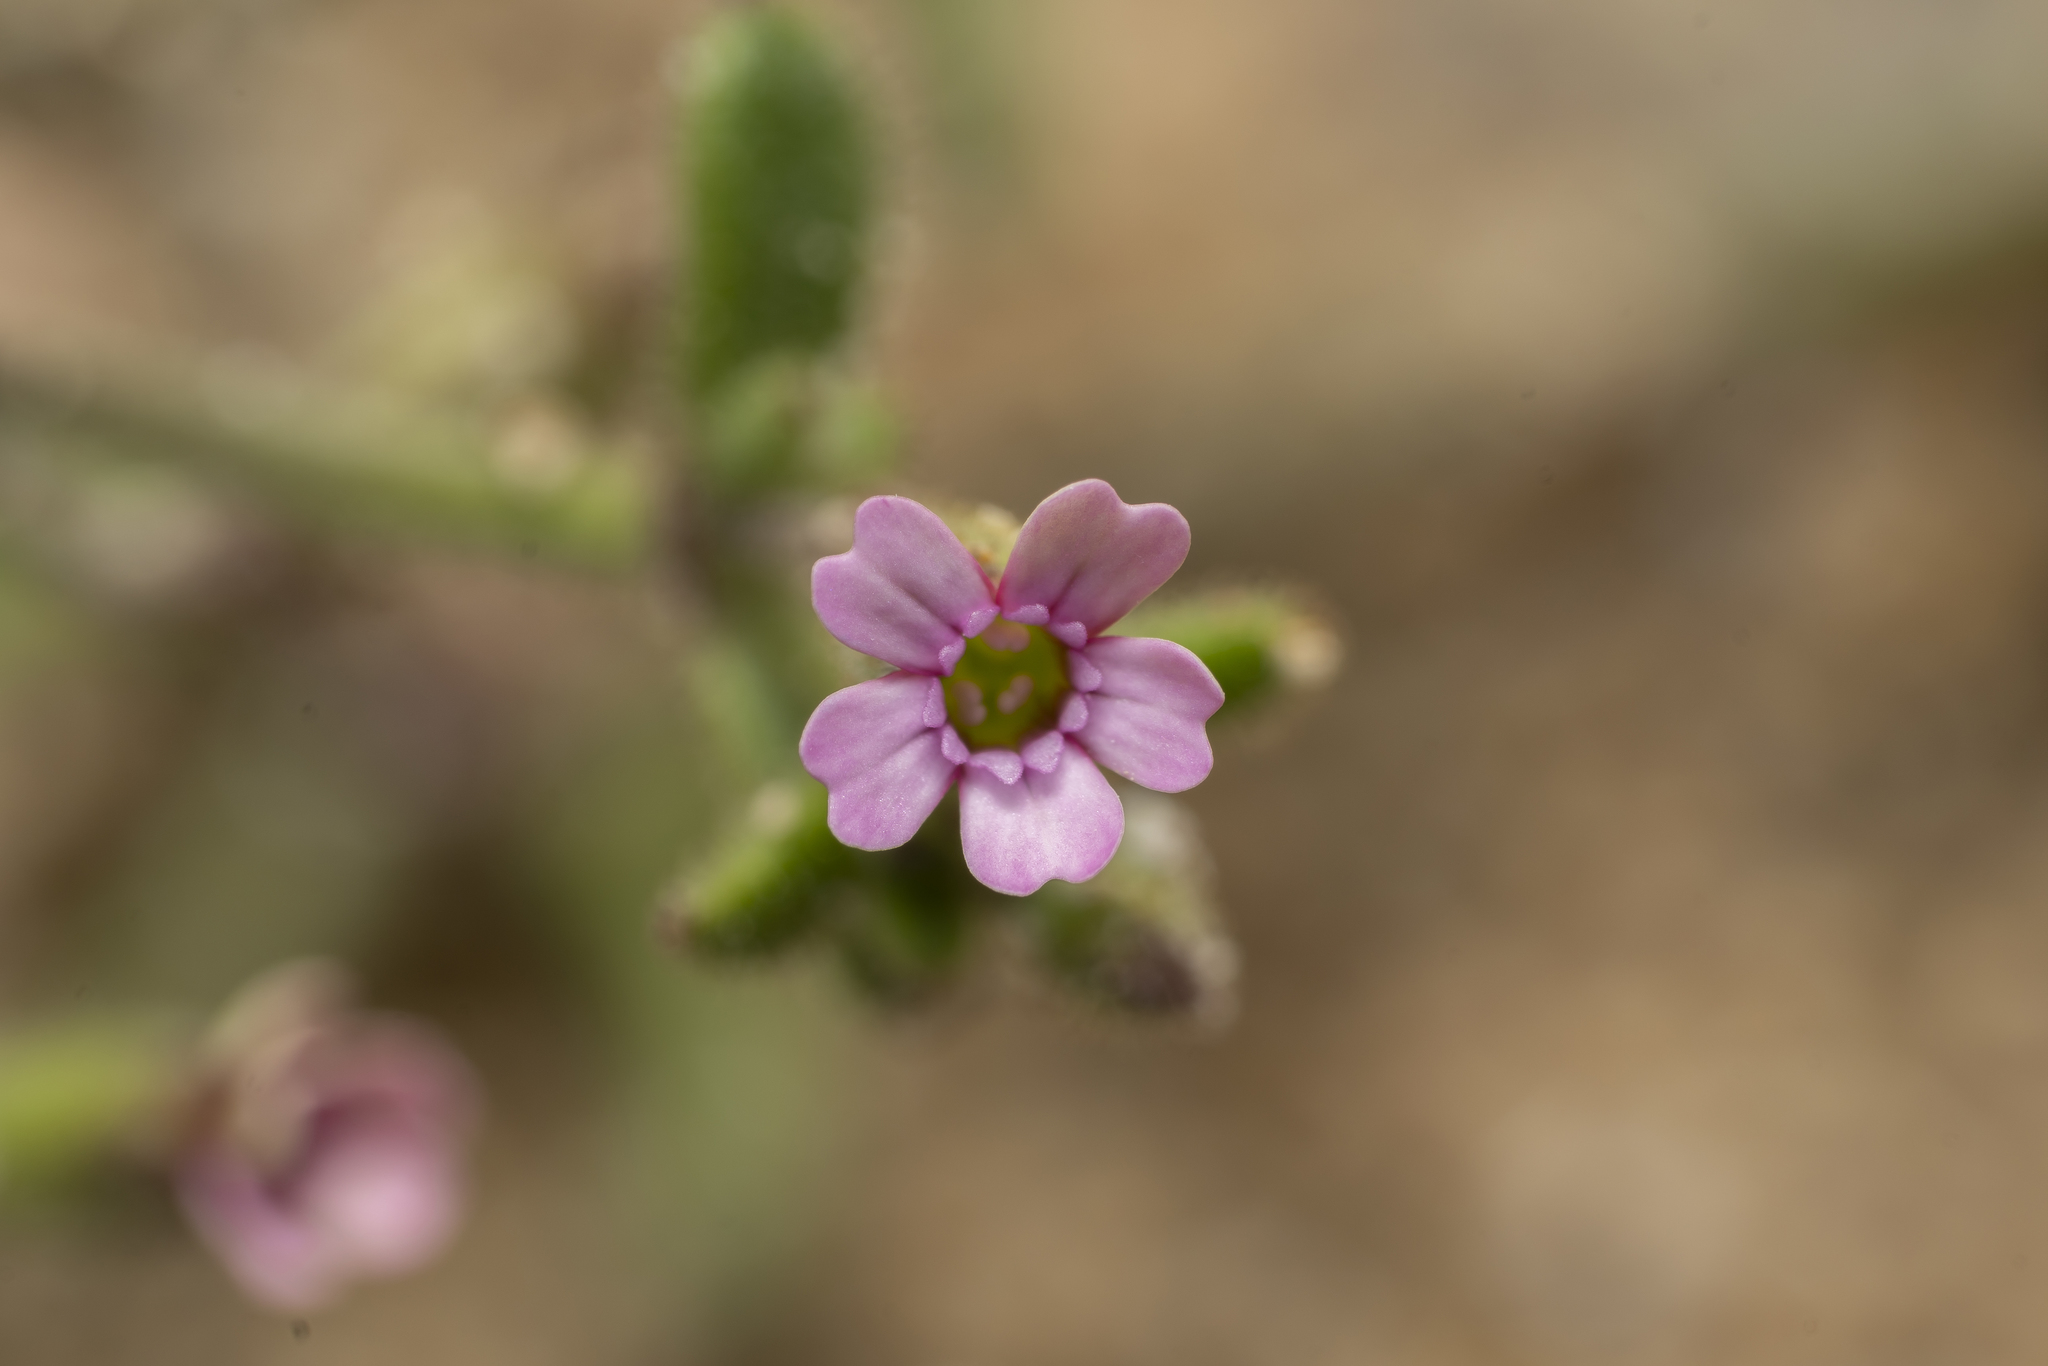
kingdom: Plantae
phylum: Tracheophyta
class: Magnoliopsida
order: Caryophyllales
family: Caryophyllaceae
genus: Silene
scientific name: Silene sedoides
